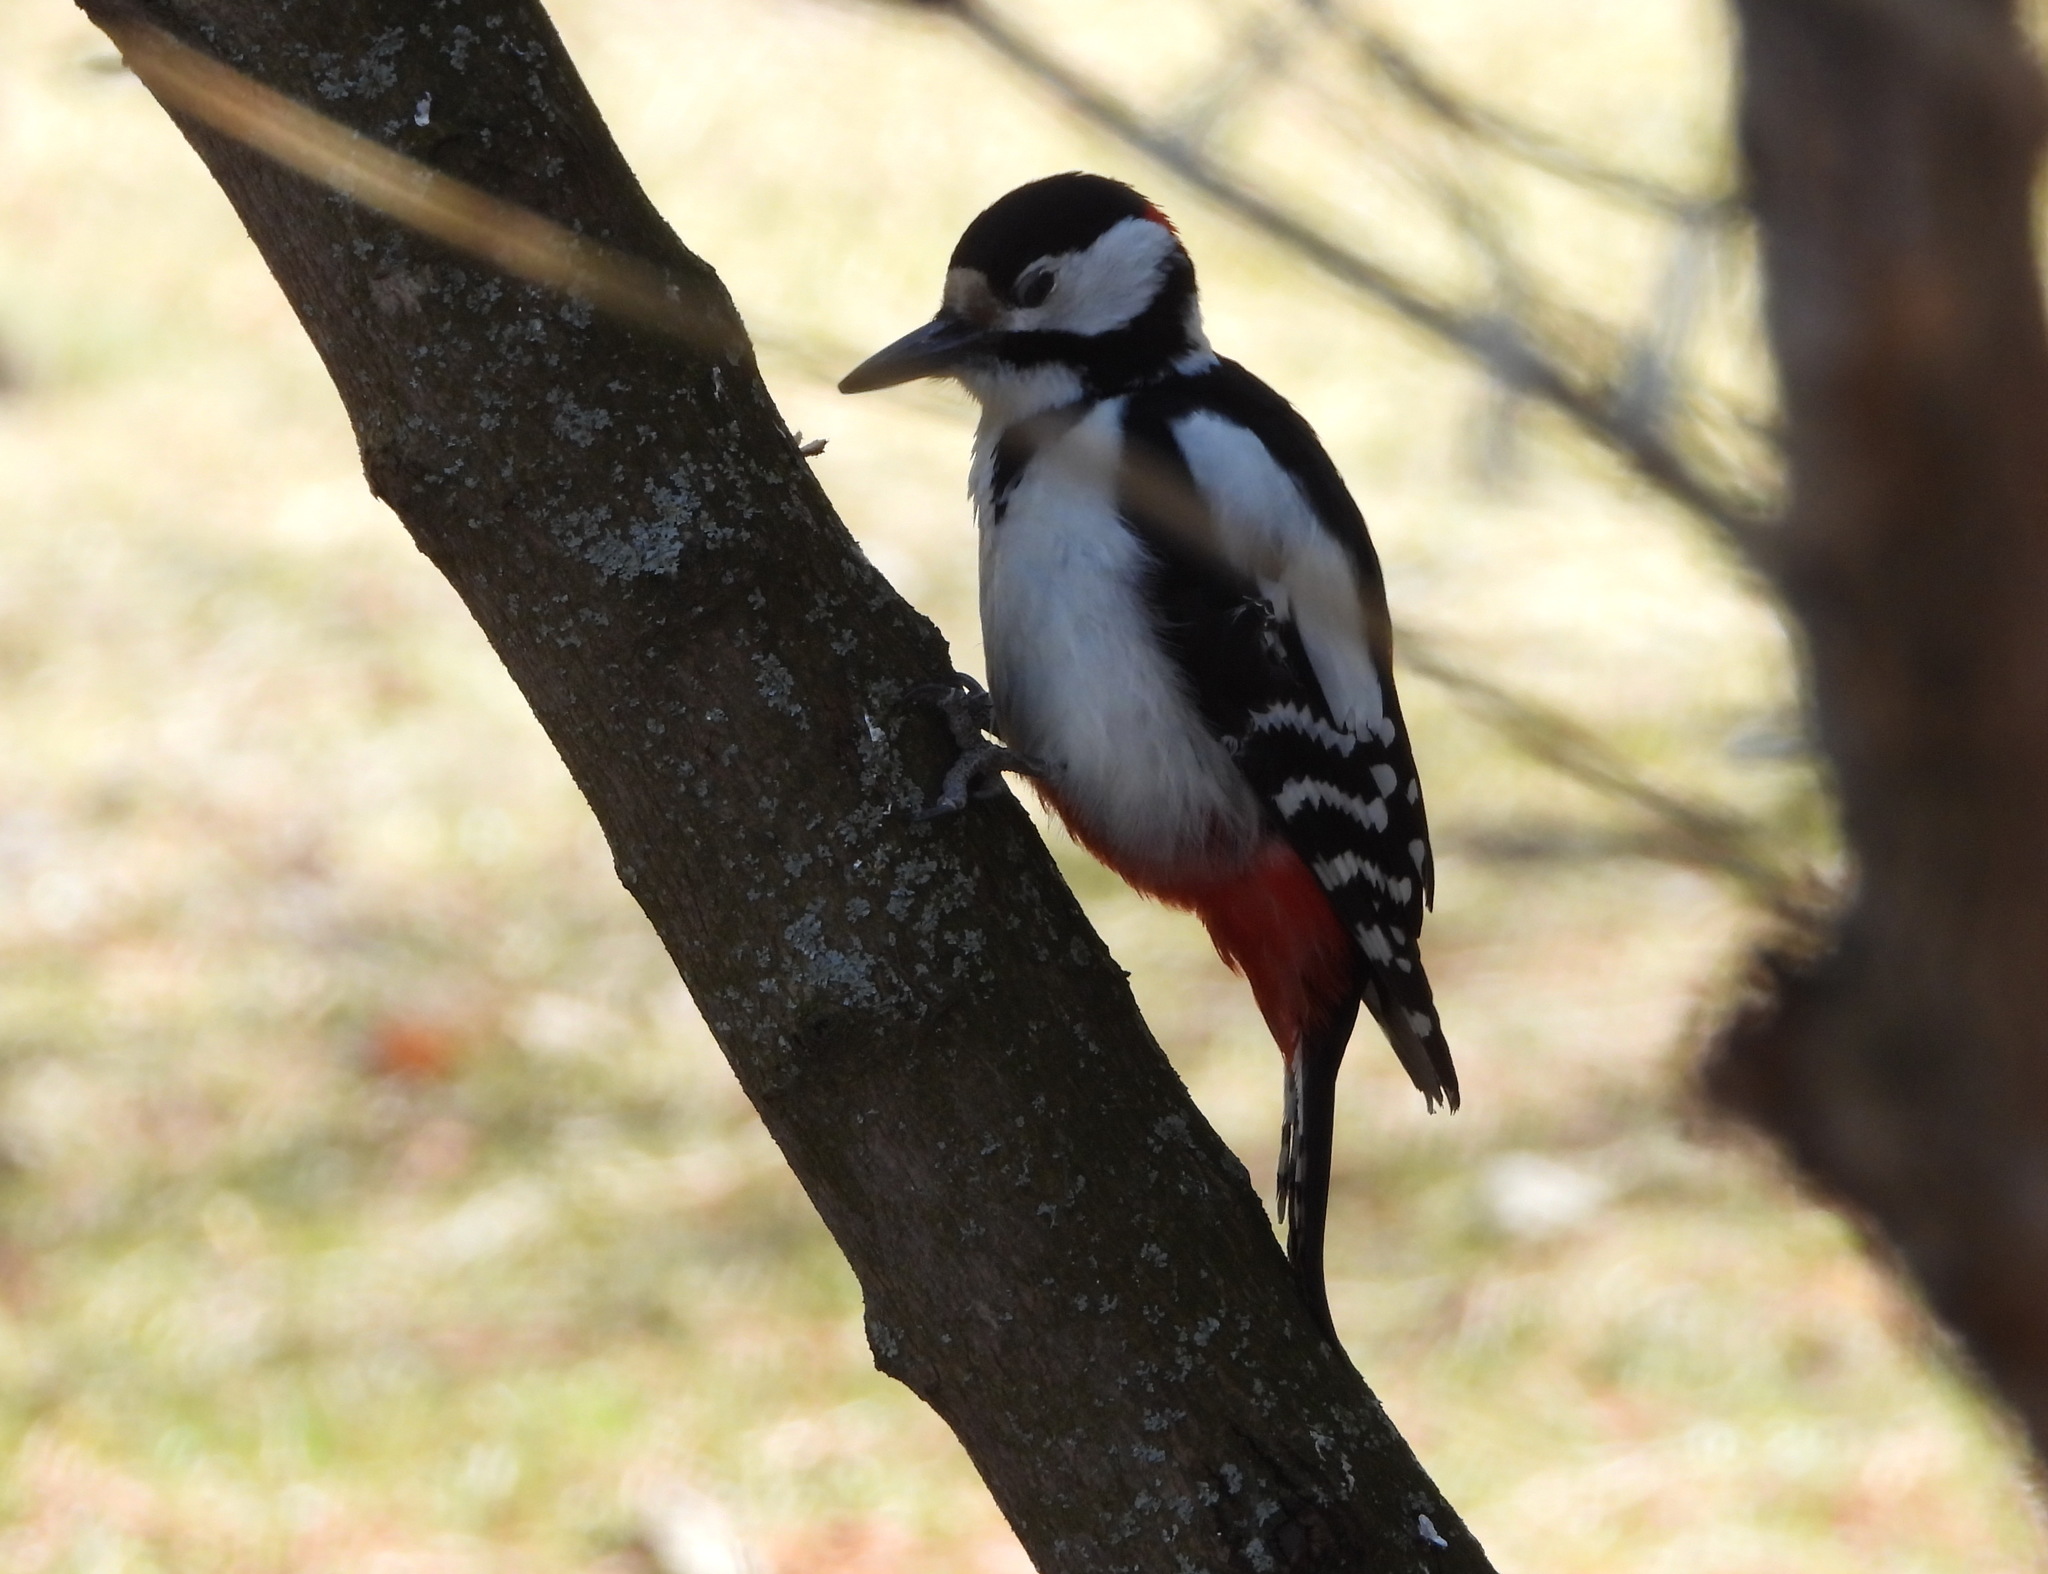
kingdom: Animalia
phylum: Chordata
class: Aves
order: Piciformes
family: Picidae
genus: Dendrocopos
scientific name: Dendrocopos major
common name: Great spotted woodpecker
